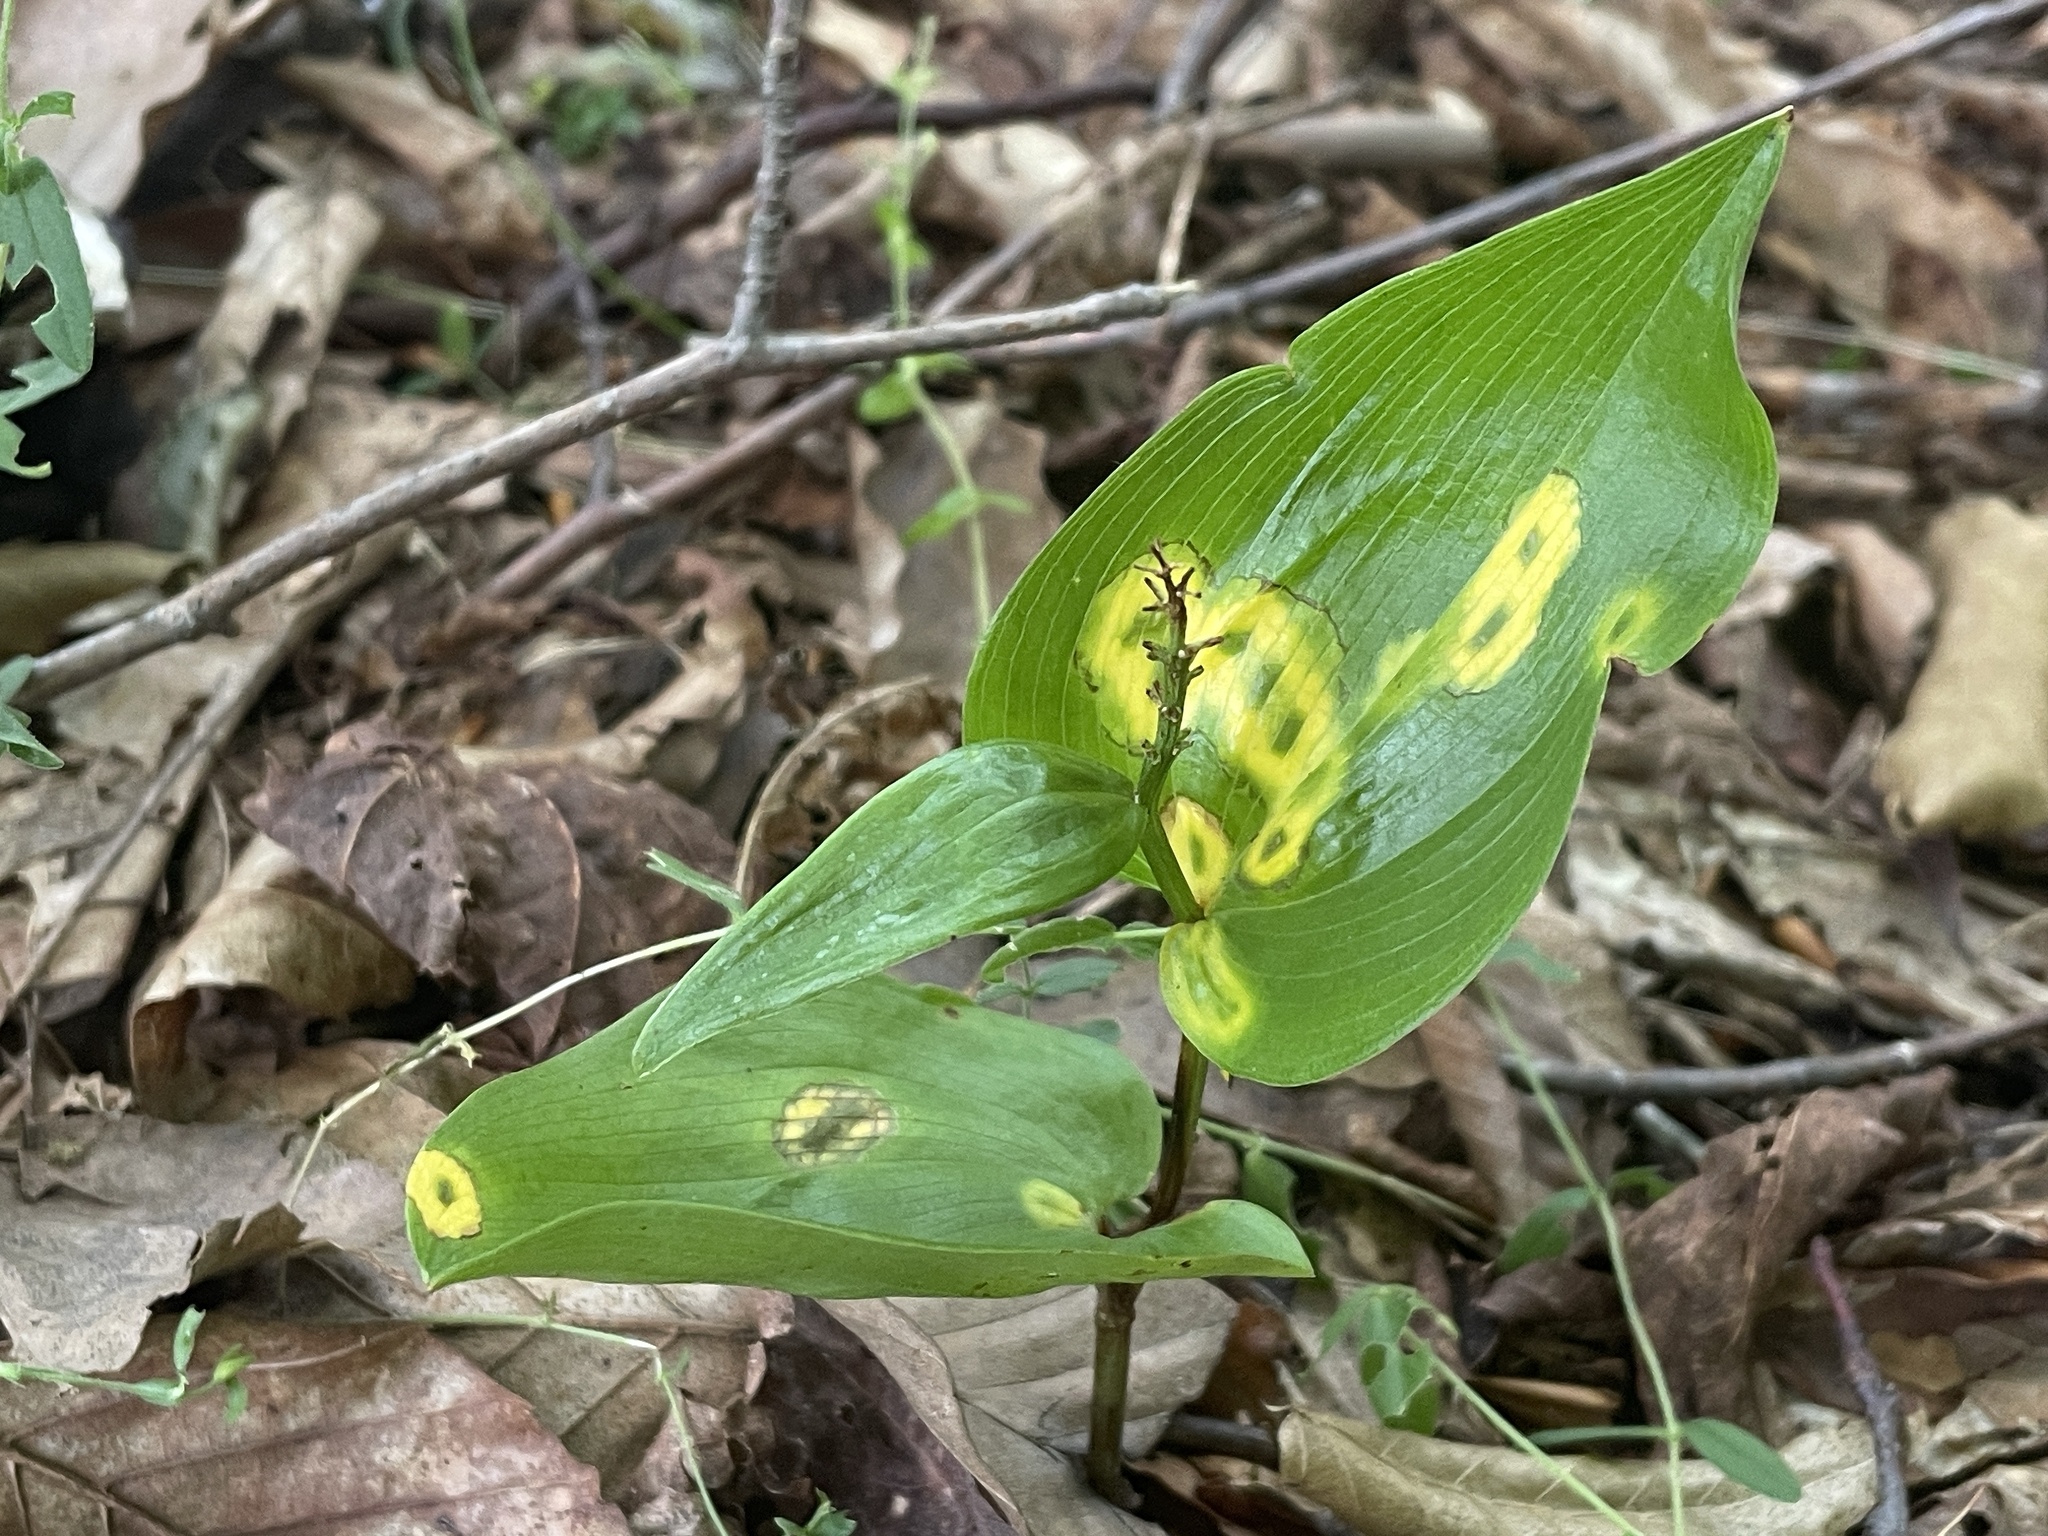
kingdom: Plantae
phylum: Tracheophyta
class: Liliopsida
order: Asparagales
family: Asparagaceae
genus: Maianthemum
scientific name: Maianthemum canadense
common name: False lily-of-the-valley
